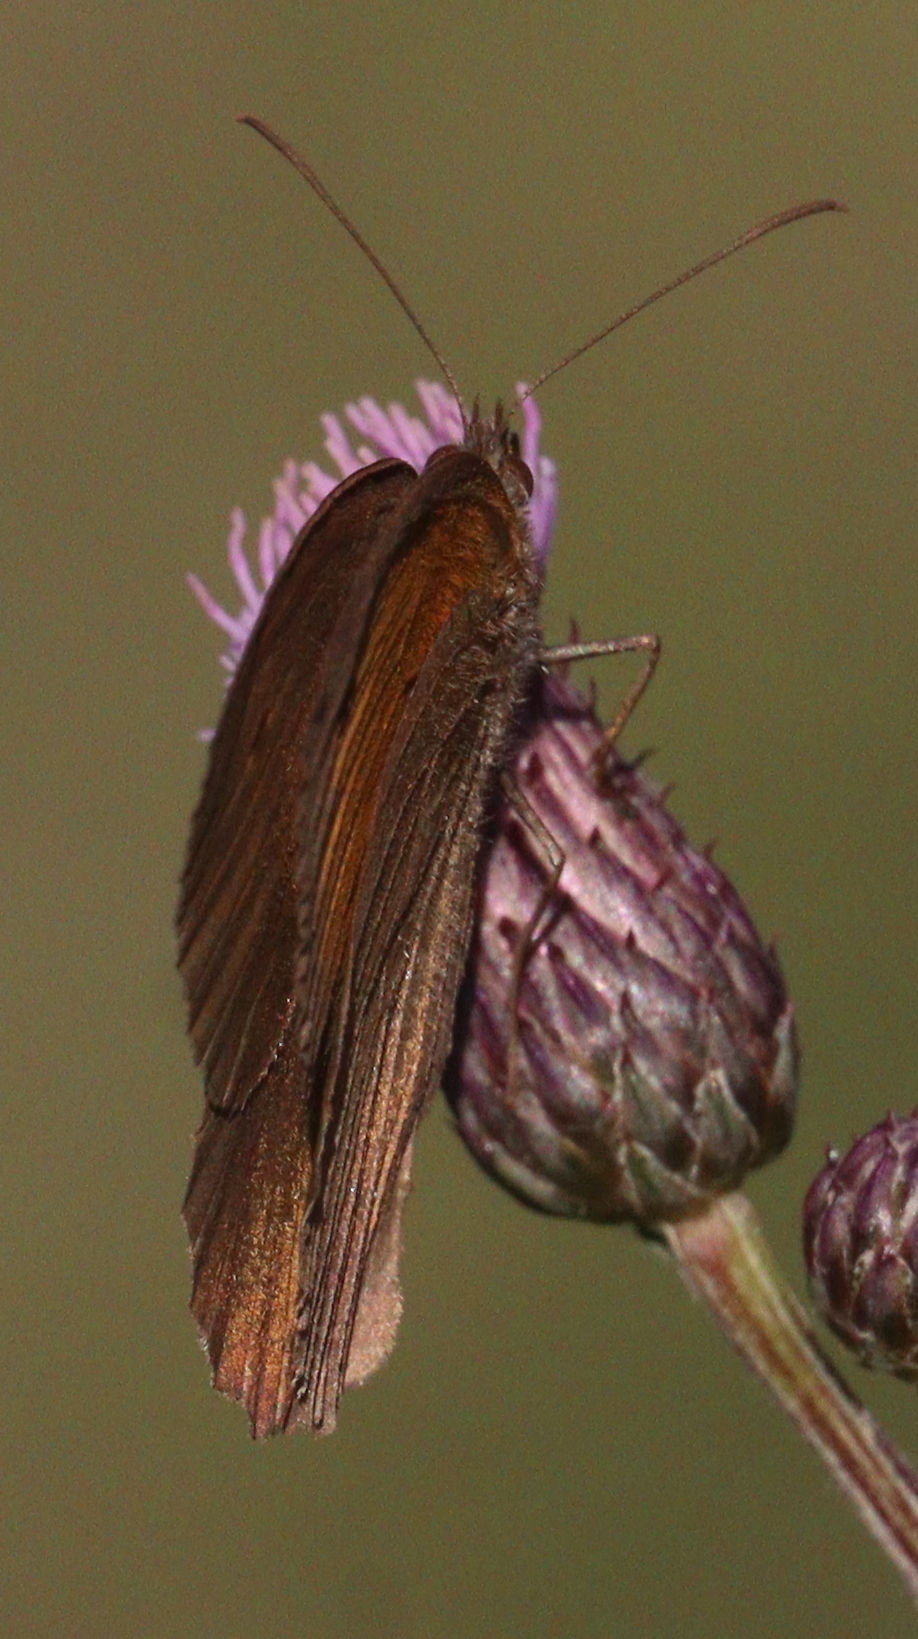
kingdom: Animalia
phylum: Arthropoda
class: Insecta
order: Lepidoptera
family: Nymphalidae
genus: Maniola
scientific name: Maniola jurtina
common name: Meadow brown
